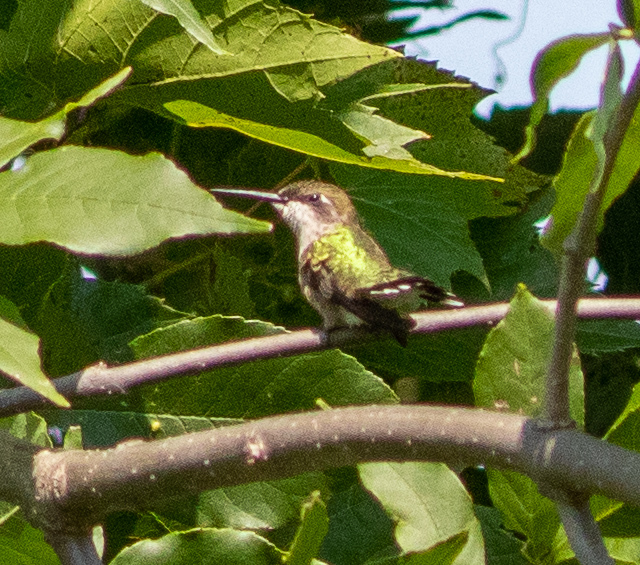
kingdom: Animalia
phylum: Chordata
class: Aves
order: Apodiformes
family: Trochilidae
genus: Archilochus
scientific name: Archilochus colubris
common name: Ruby-throated hummingbird
